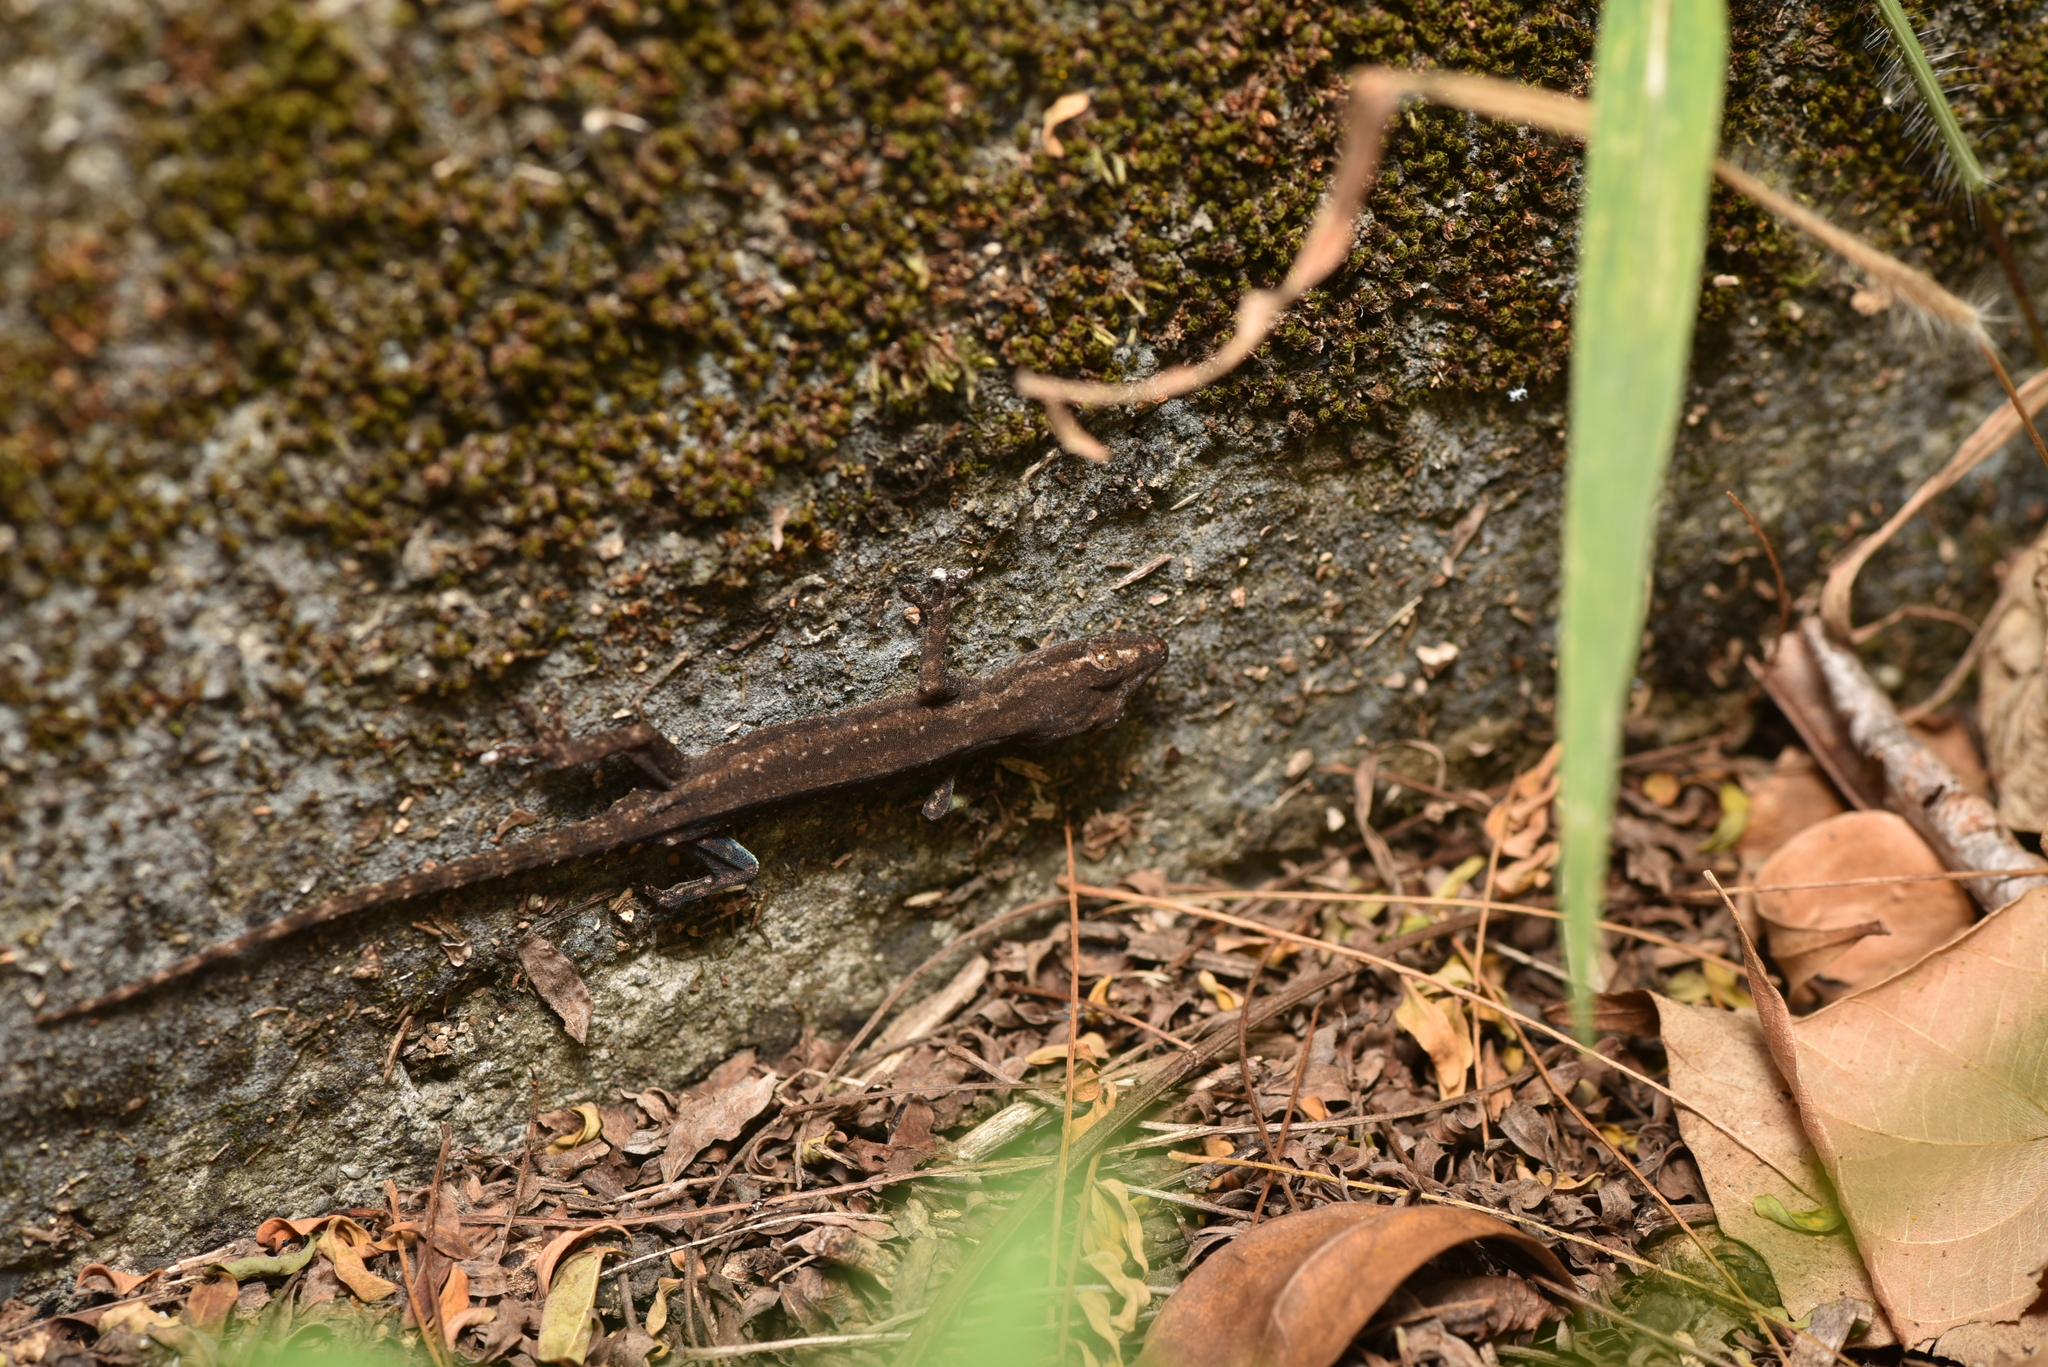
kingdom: Animalia
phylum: Chordata
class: Squamata
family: Gekkonidae
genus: Hemidactylus
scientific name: Hemidactylus frenatus
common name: Common house gecko
